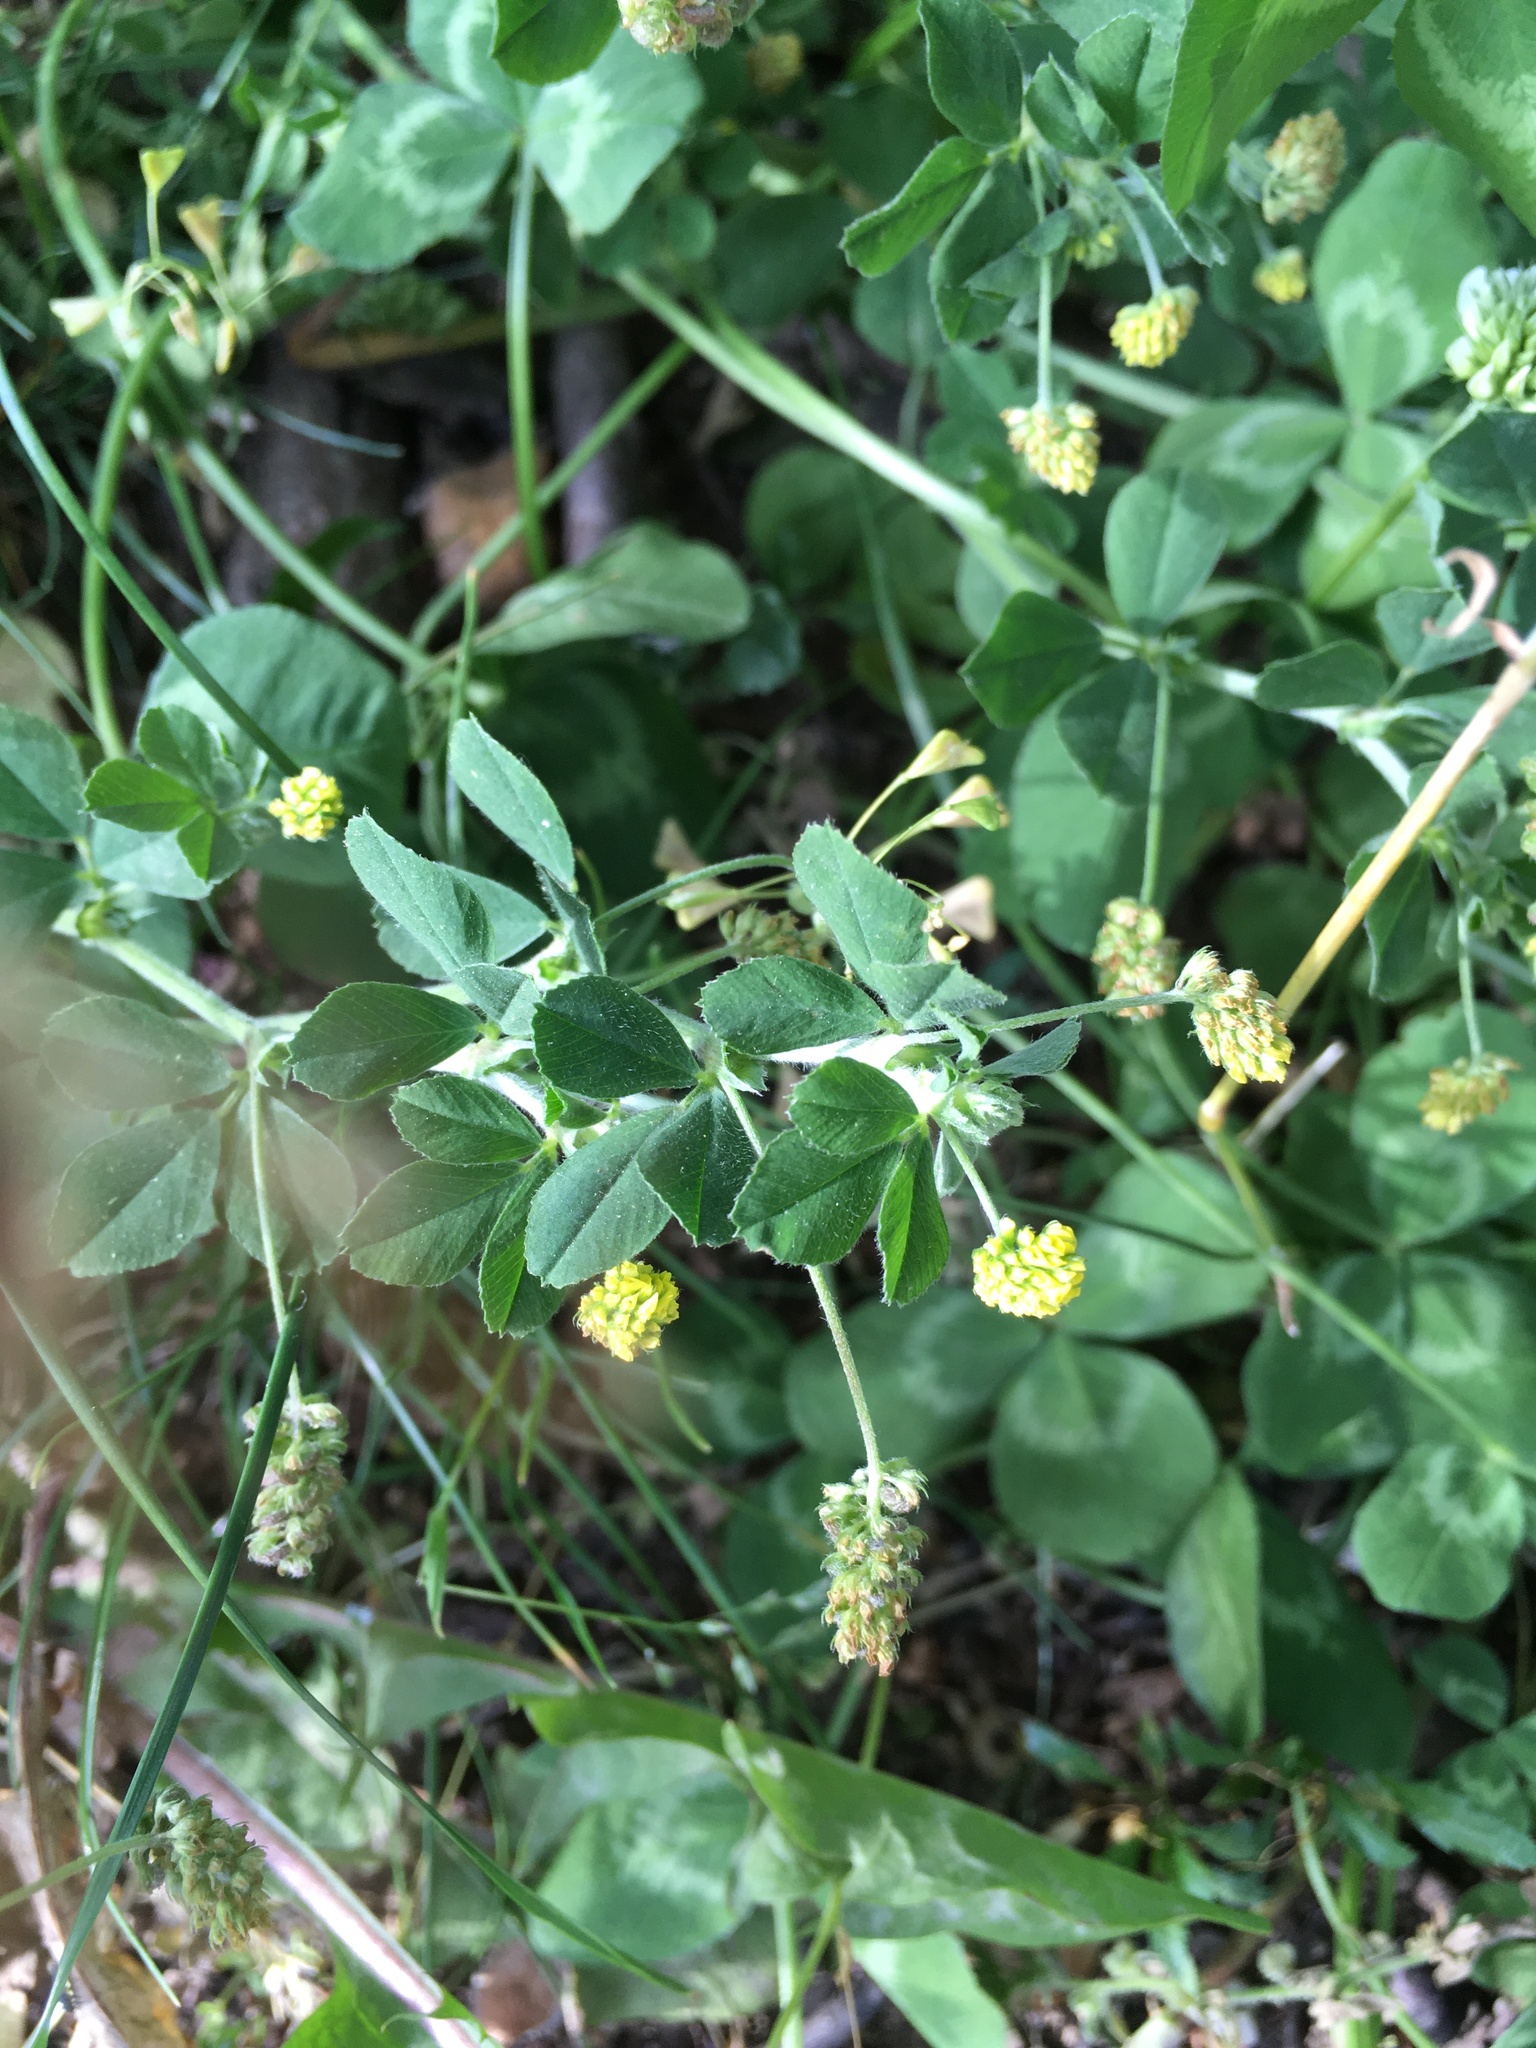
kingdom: Plantae
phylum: Tracheophyta
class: Magnoliopsida
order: Fabales
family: Fabaceae
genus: Medicago
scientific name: Medicago lupulina
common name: Black medick
